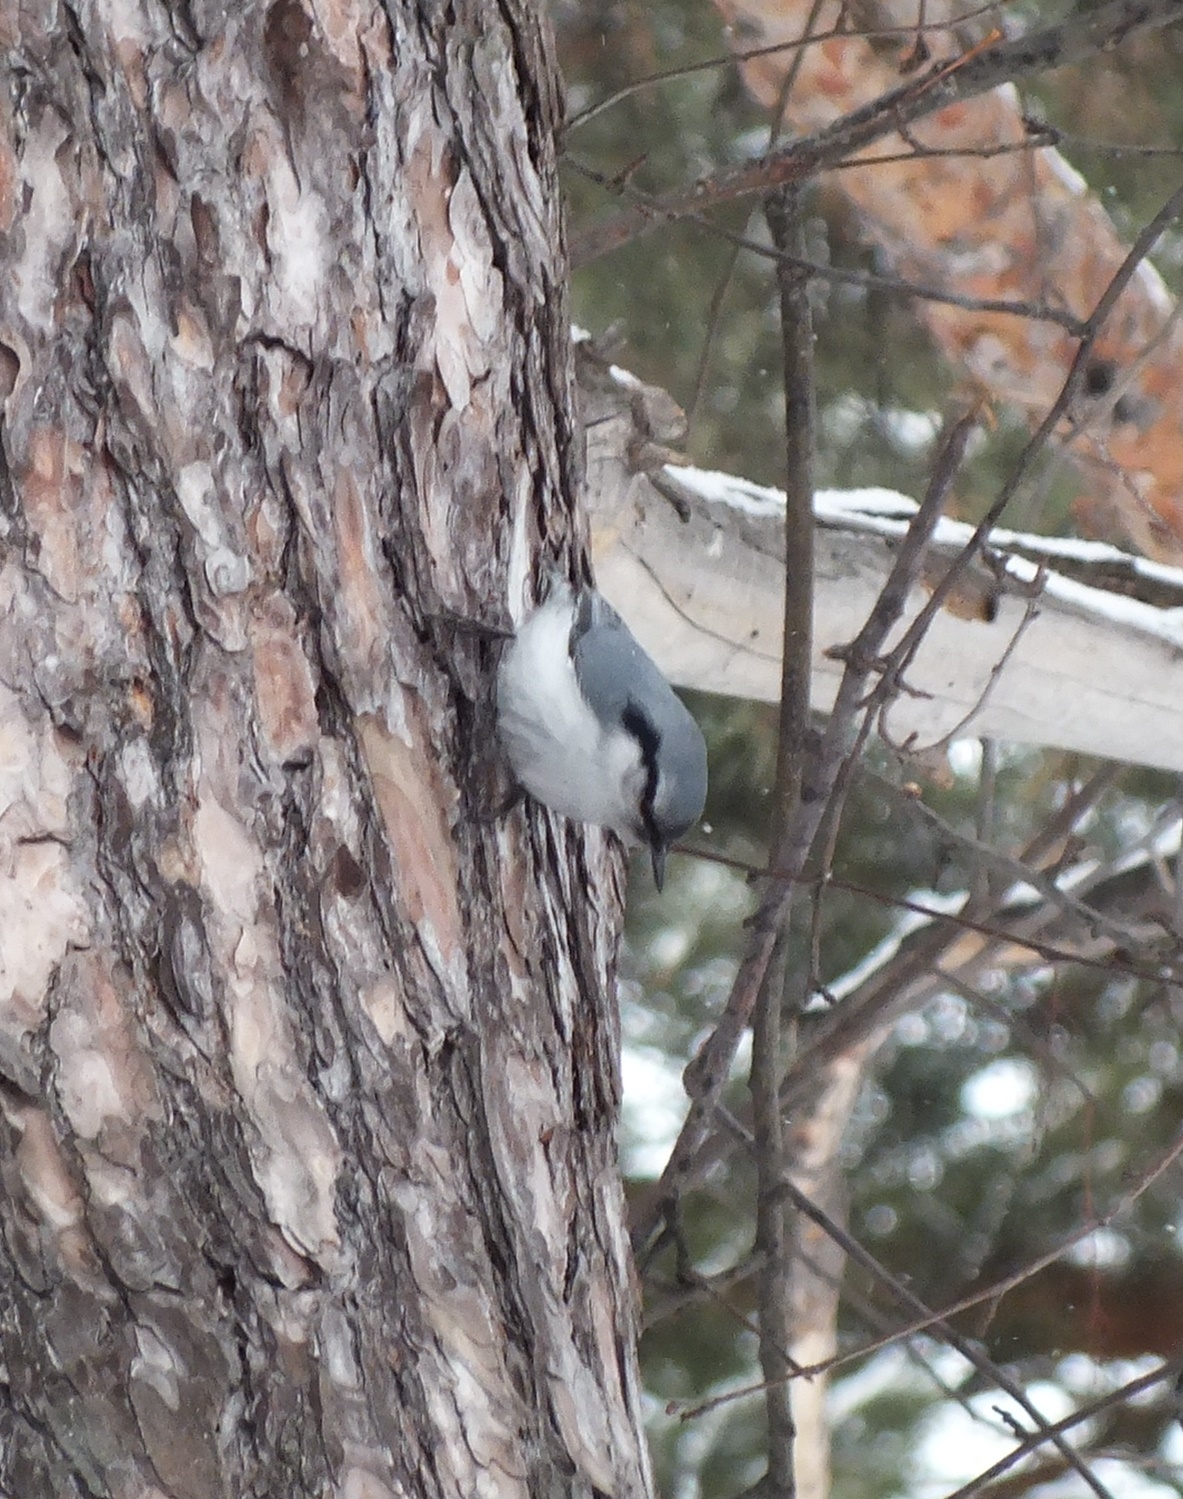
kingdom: Animalia
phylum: Chordata
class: Aves
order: Passeriformes
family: Sittidae
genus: Sitta
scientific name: Sitta europaea
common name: Eurasian nuthatch
